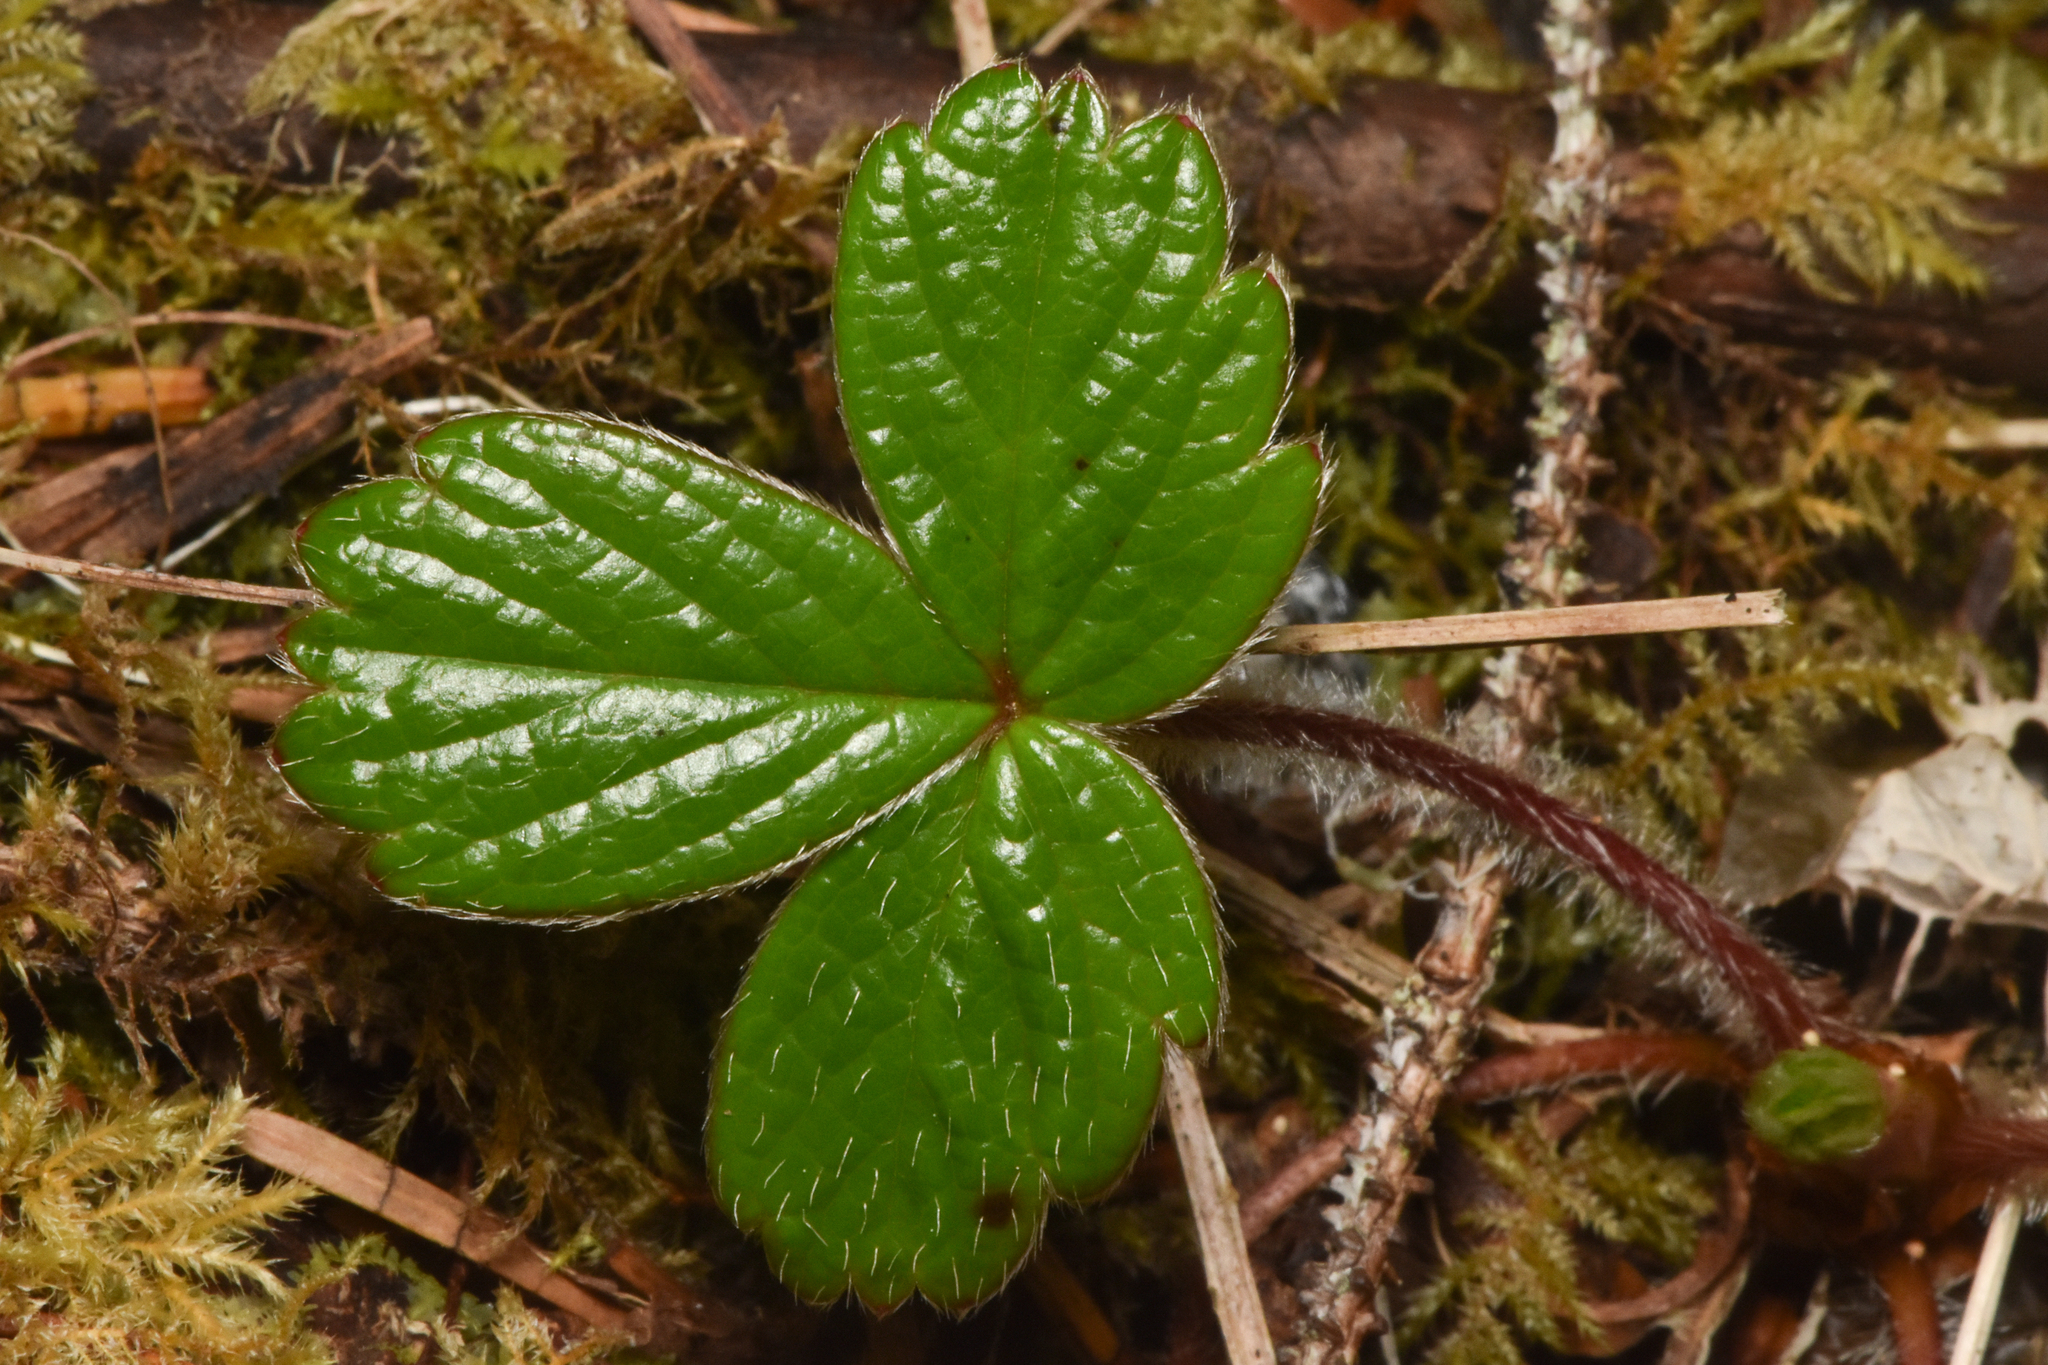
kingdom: Plantae
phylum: Tracheophyta
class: Magnoliopsida
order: Rosales
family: Rosaceae
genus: Fragaria
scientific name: Fragaria chiloensis
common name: Beach strawberry
